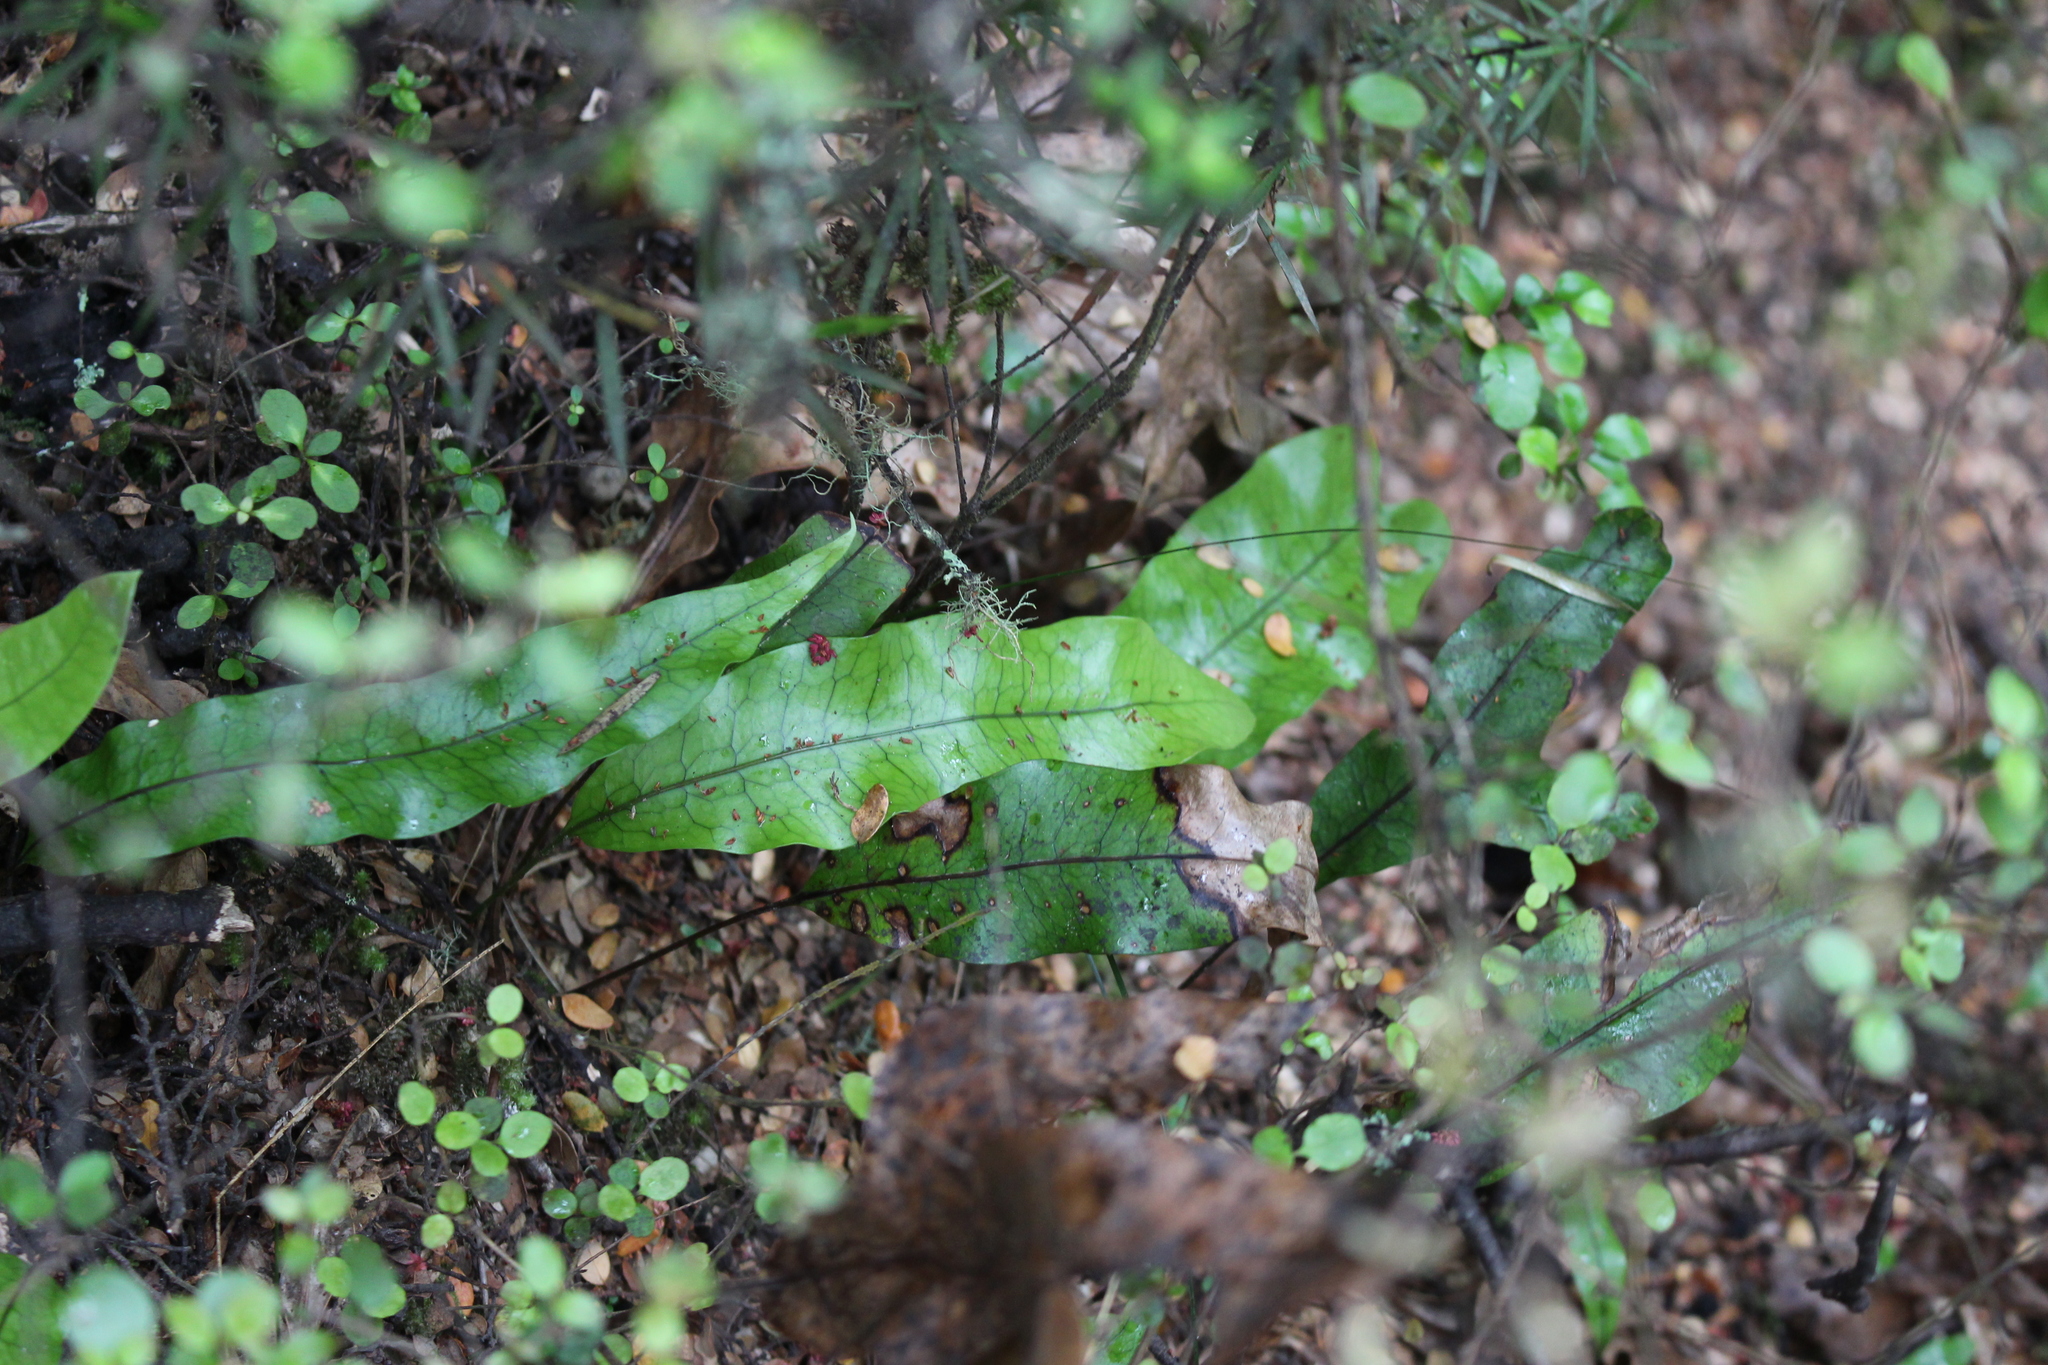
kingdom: Plantae
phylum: Tracheophyta
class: Polypodiopsida
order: Polypodiales
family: Polypodiaceae
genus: Lecanopteris
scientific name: Lecanopteris pustulata
